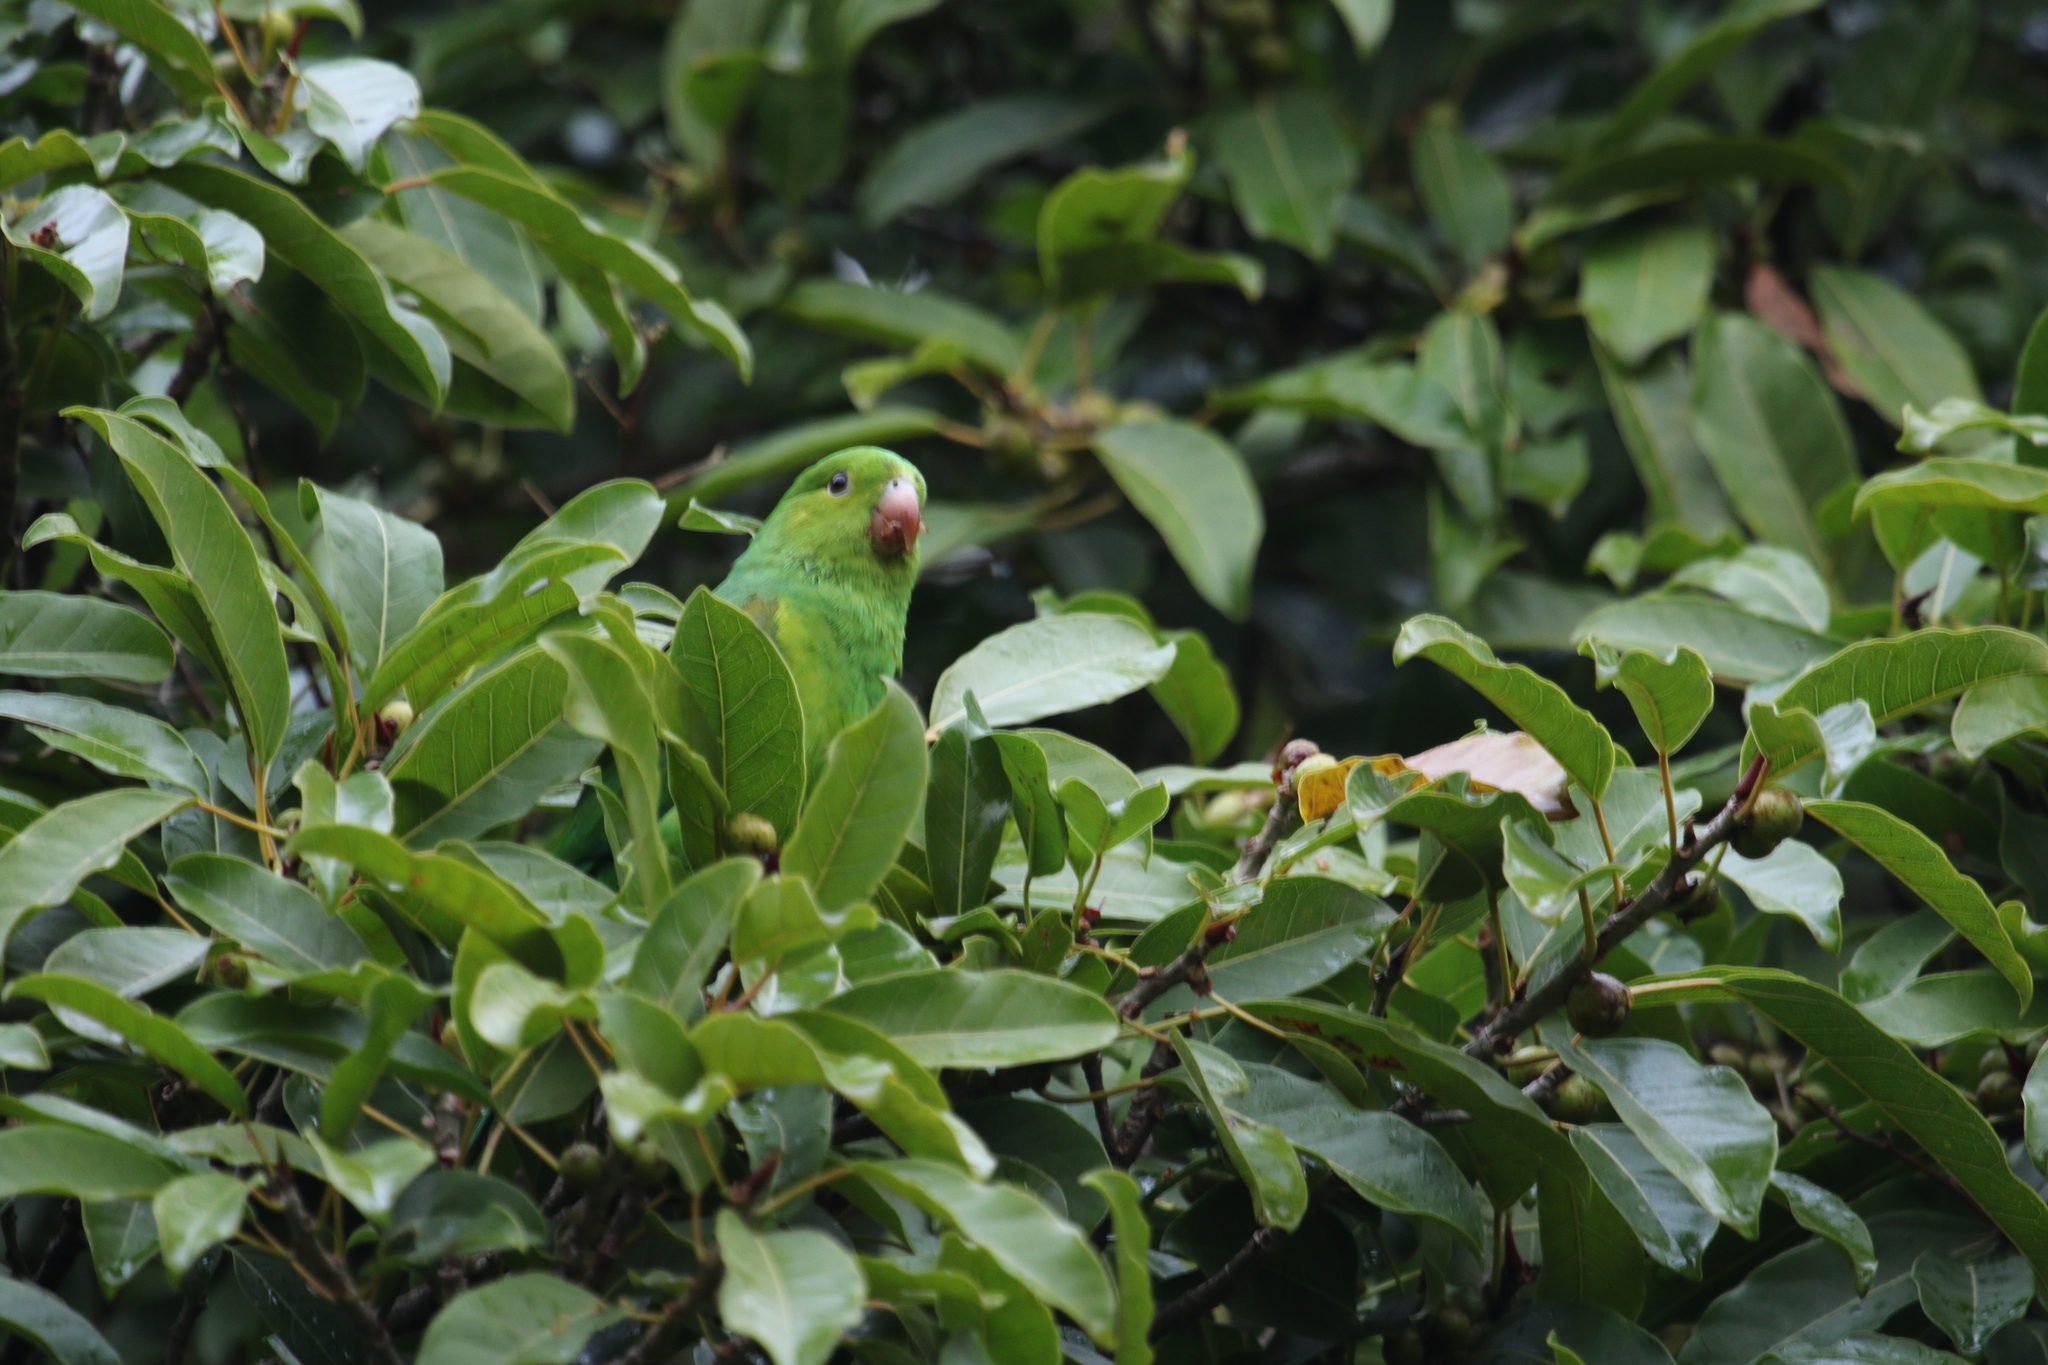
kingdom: Animalia
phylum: Chordata
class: Aves
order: Psittaciformes
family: Psittacidae
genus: Brotogeris
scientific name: Brotogeris tirica
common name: Plain parakeet
